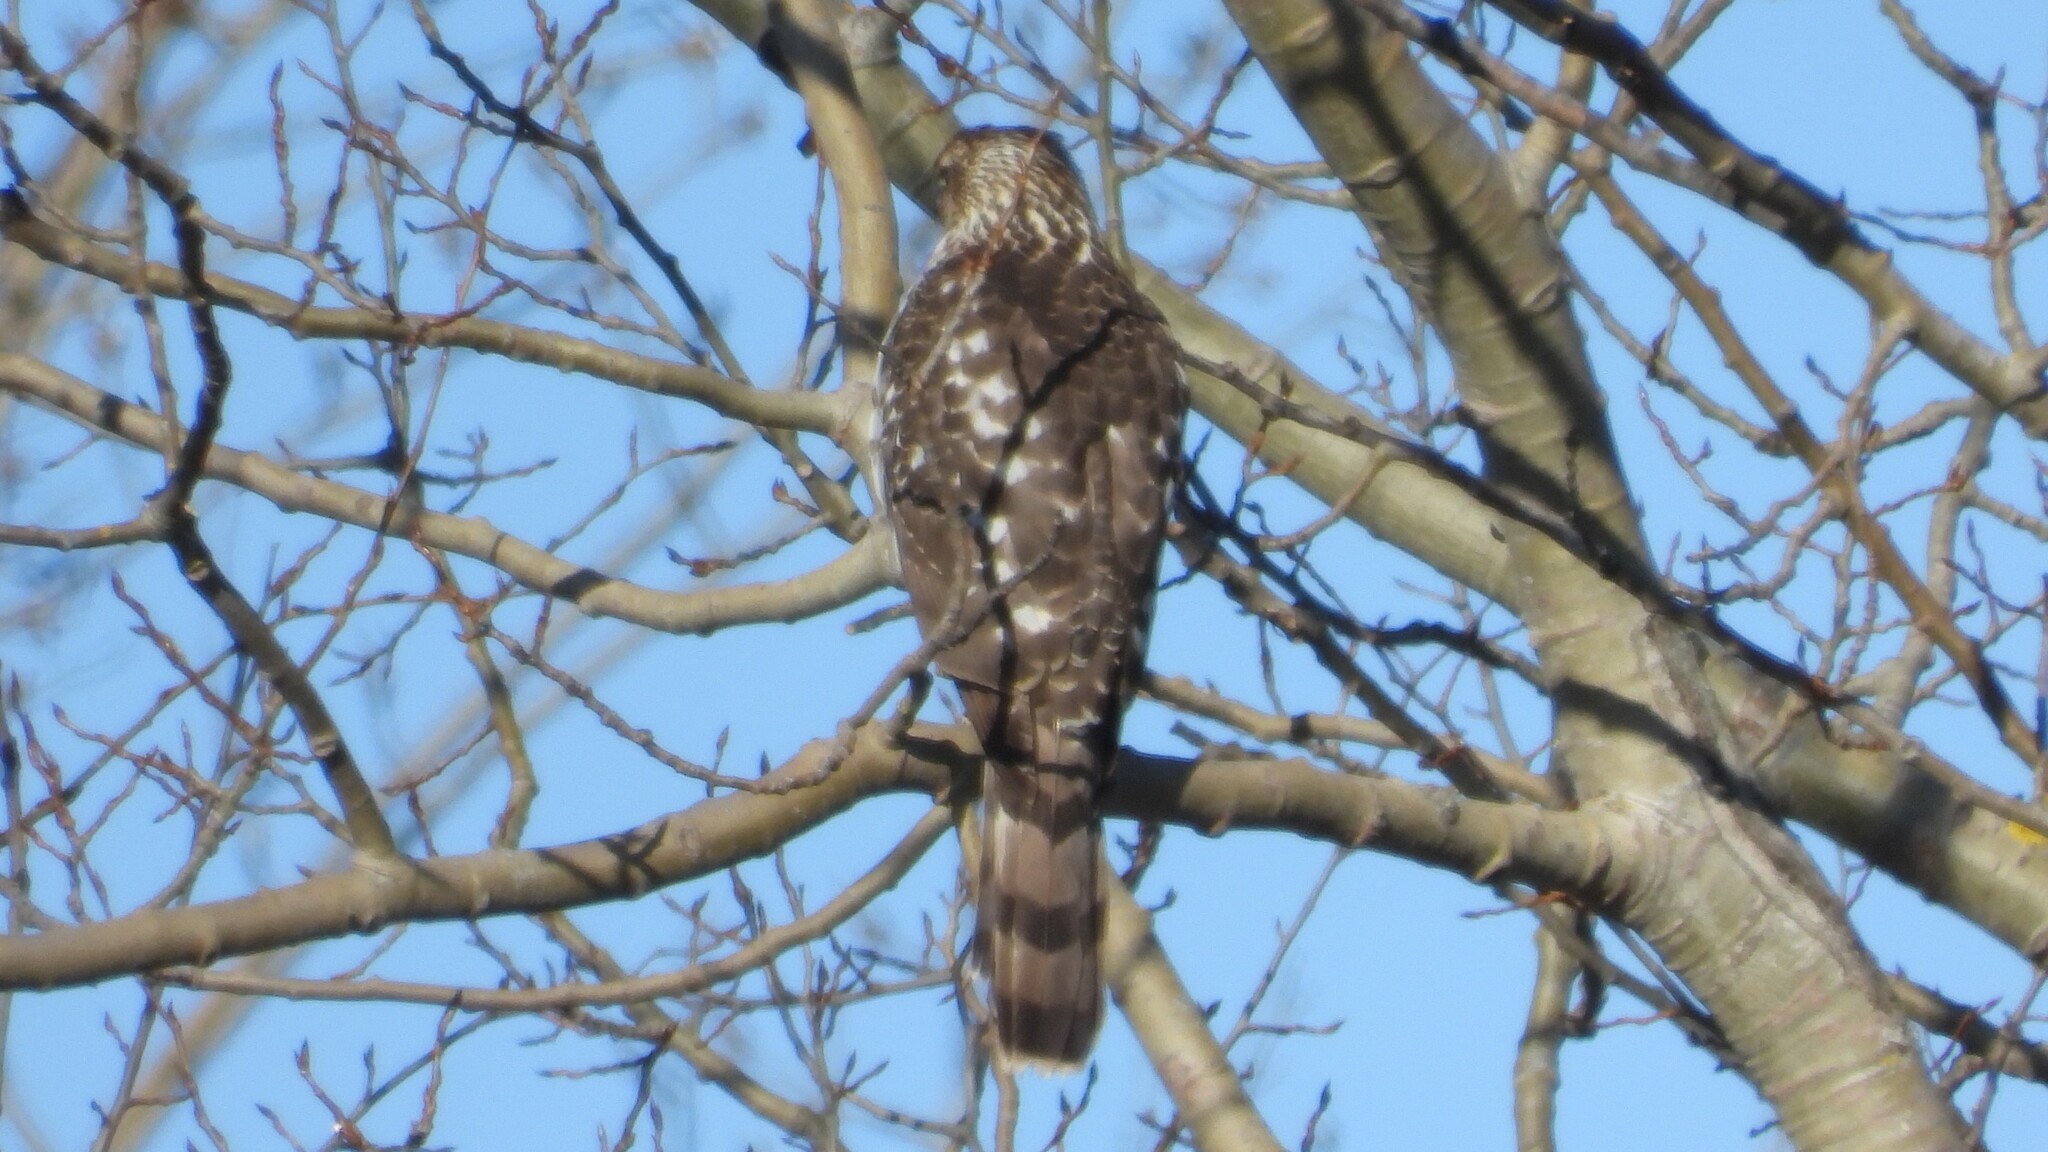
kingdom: Animalia
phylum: Chordata
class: Aves
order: Accipitriformes
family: Accipitridae
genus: Accipiter
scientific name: Accipiter cooperii
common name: Cooper's hawk
